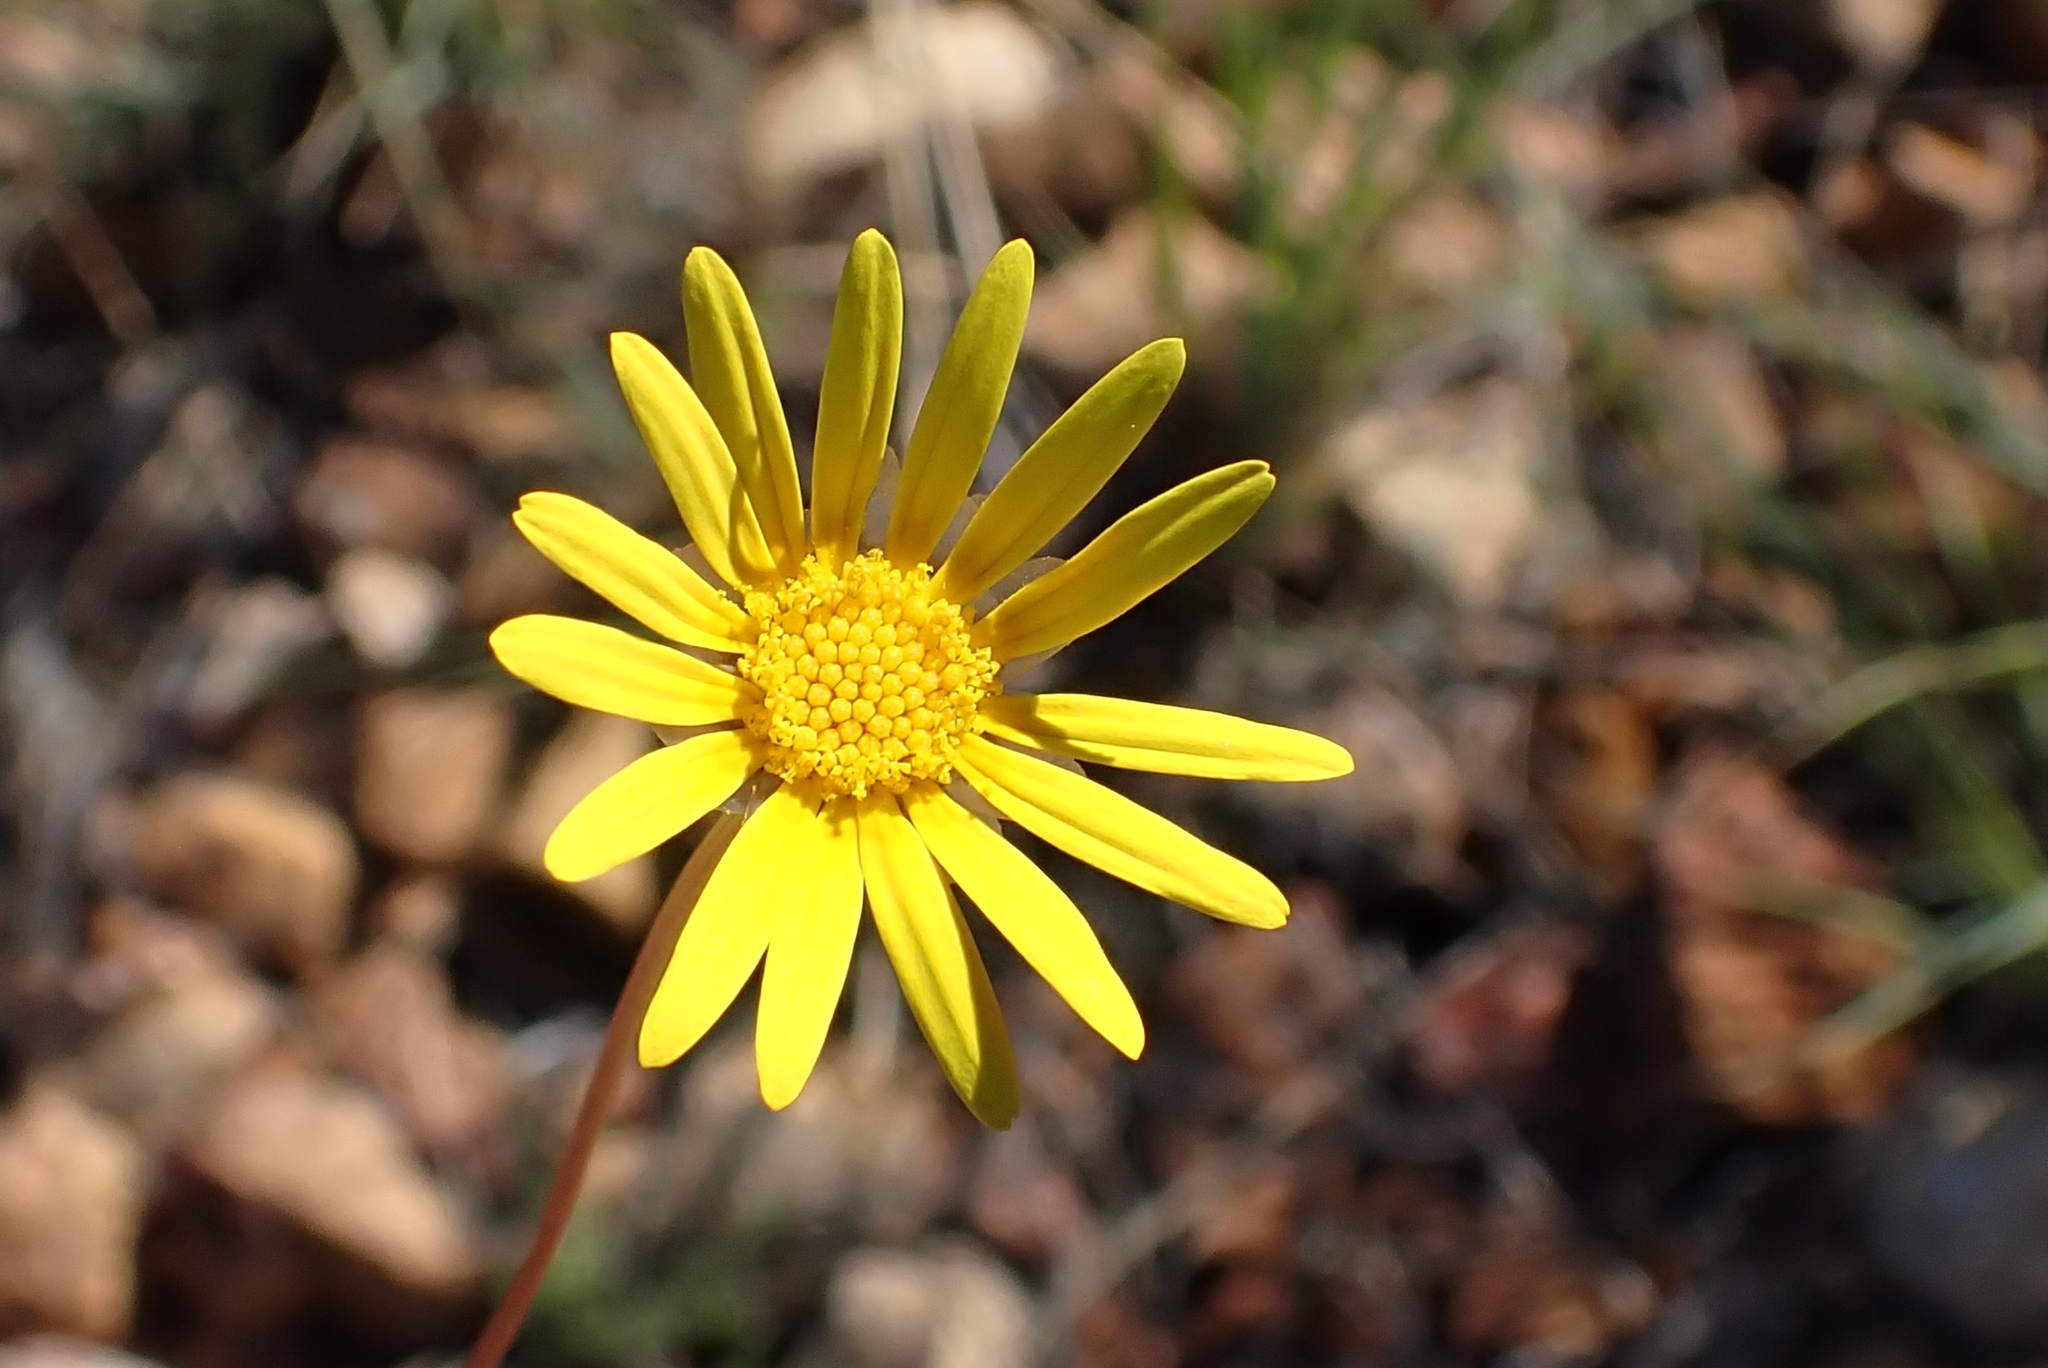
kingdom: Plantae
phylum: Tracheophyta
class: Magnoliopsida
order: Asterales
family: Asteraceae
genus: Ursinia
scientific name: Ursinia heterodonta
